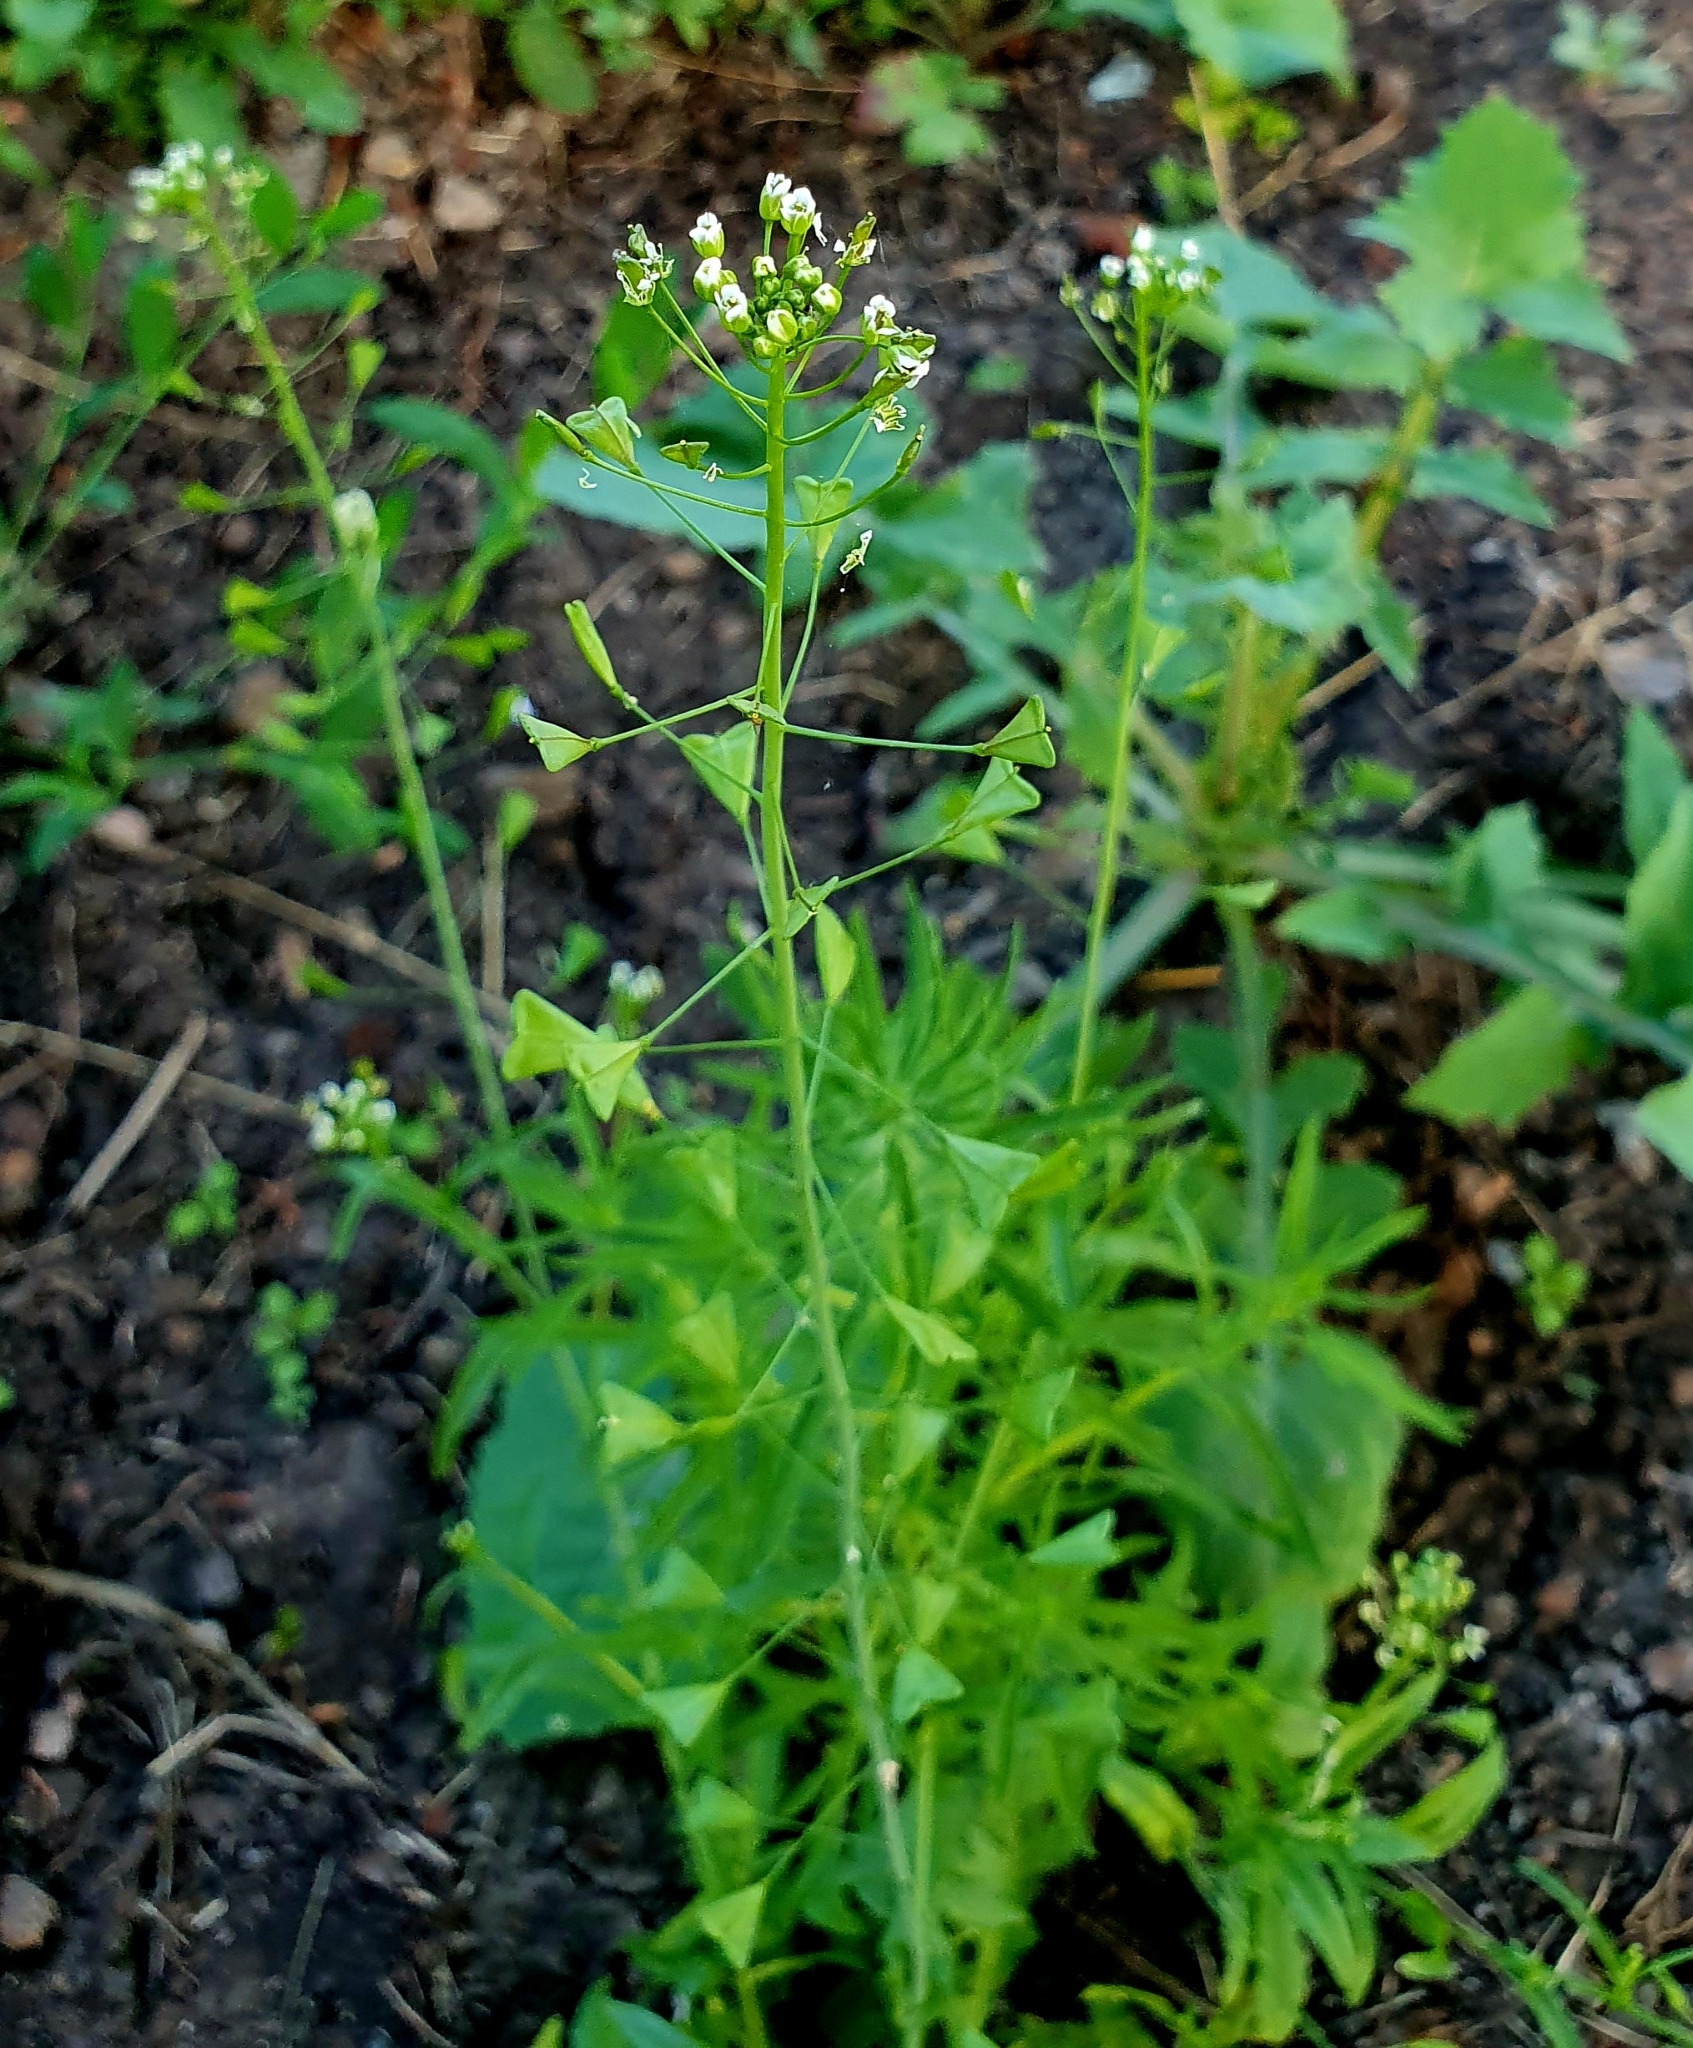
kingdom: Plantae
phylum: Tracheophyta
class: Magnoliopsida
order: Brassicales
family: Brassicaceae
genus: Capsella
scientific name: Capsella bursa-pastoris
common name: Shepherd's purse
